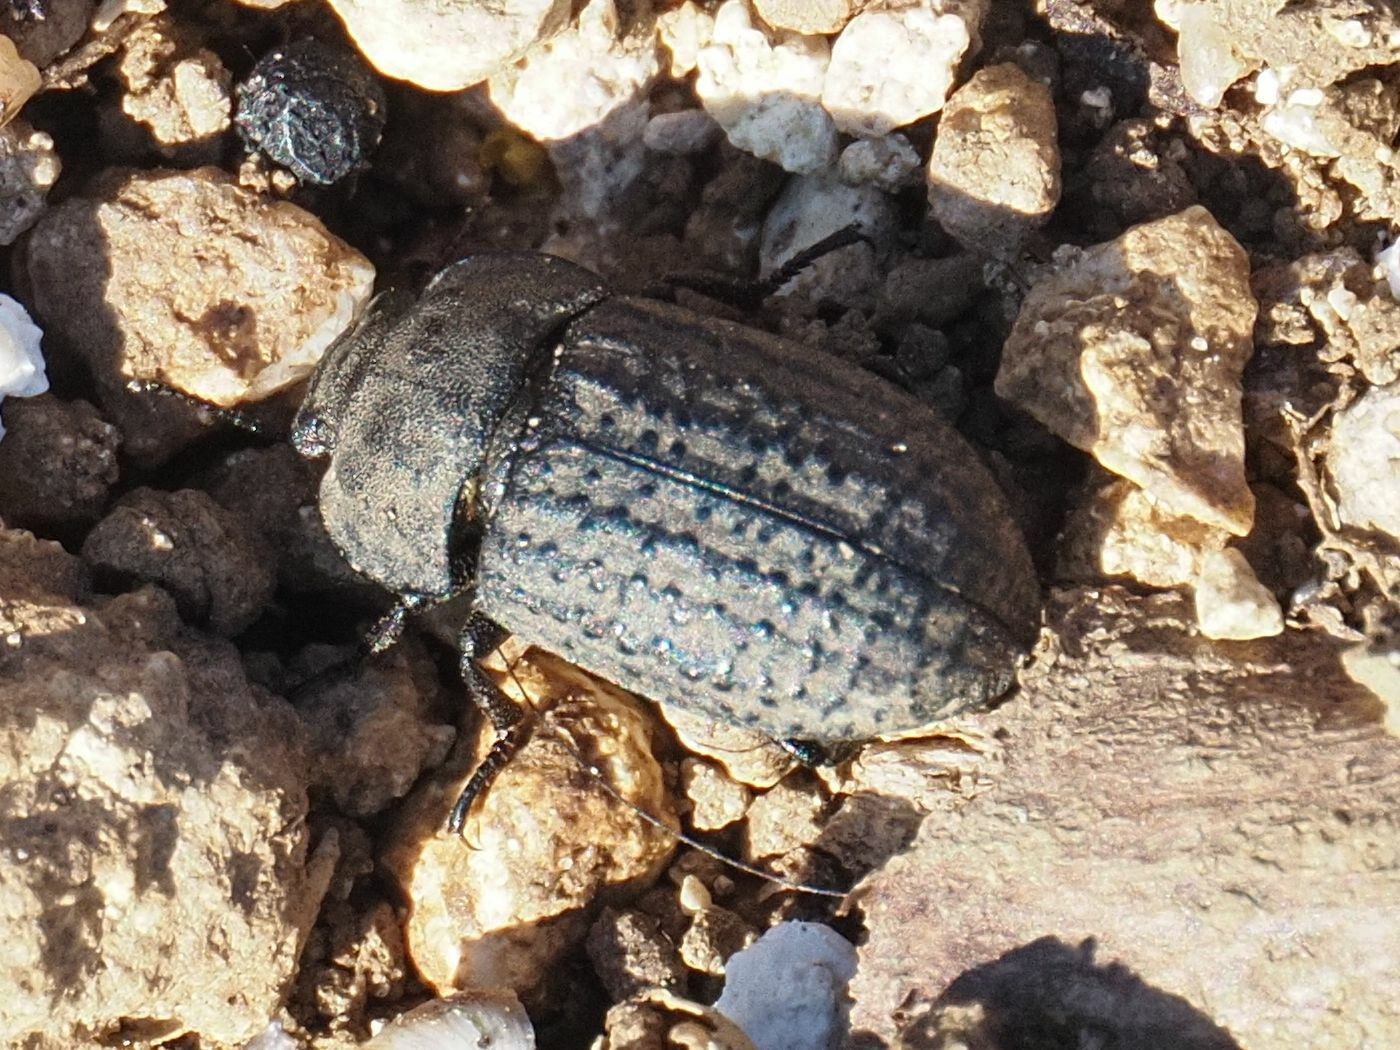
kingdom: Animalia
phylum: Arthropoda
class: Insecta
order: Coleoptera
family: Tenebrionidae
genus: Opatrum
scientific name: Opatrum sabulosum
